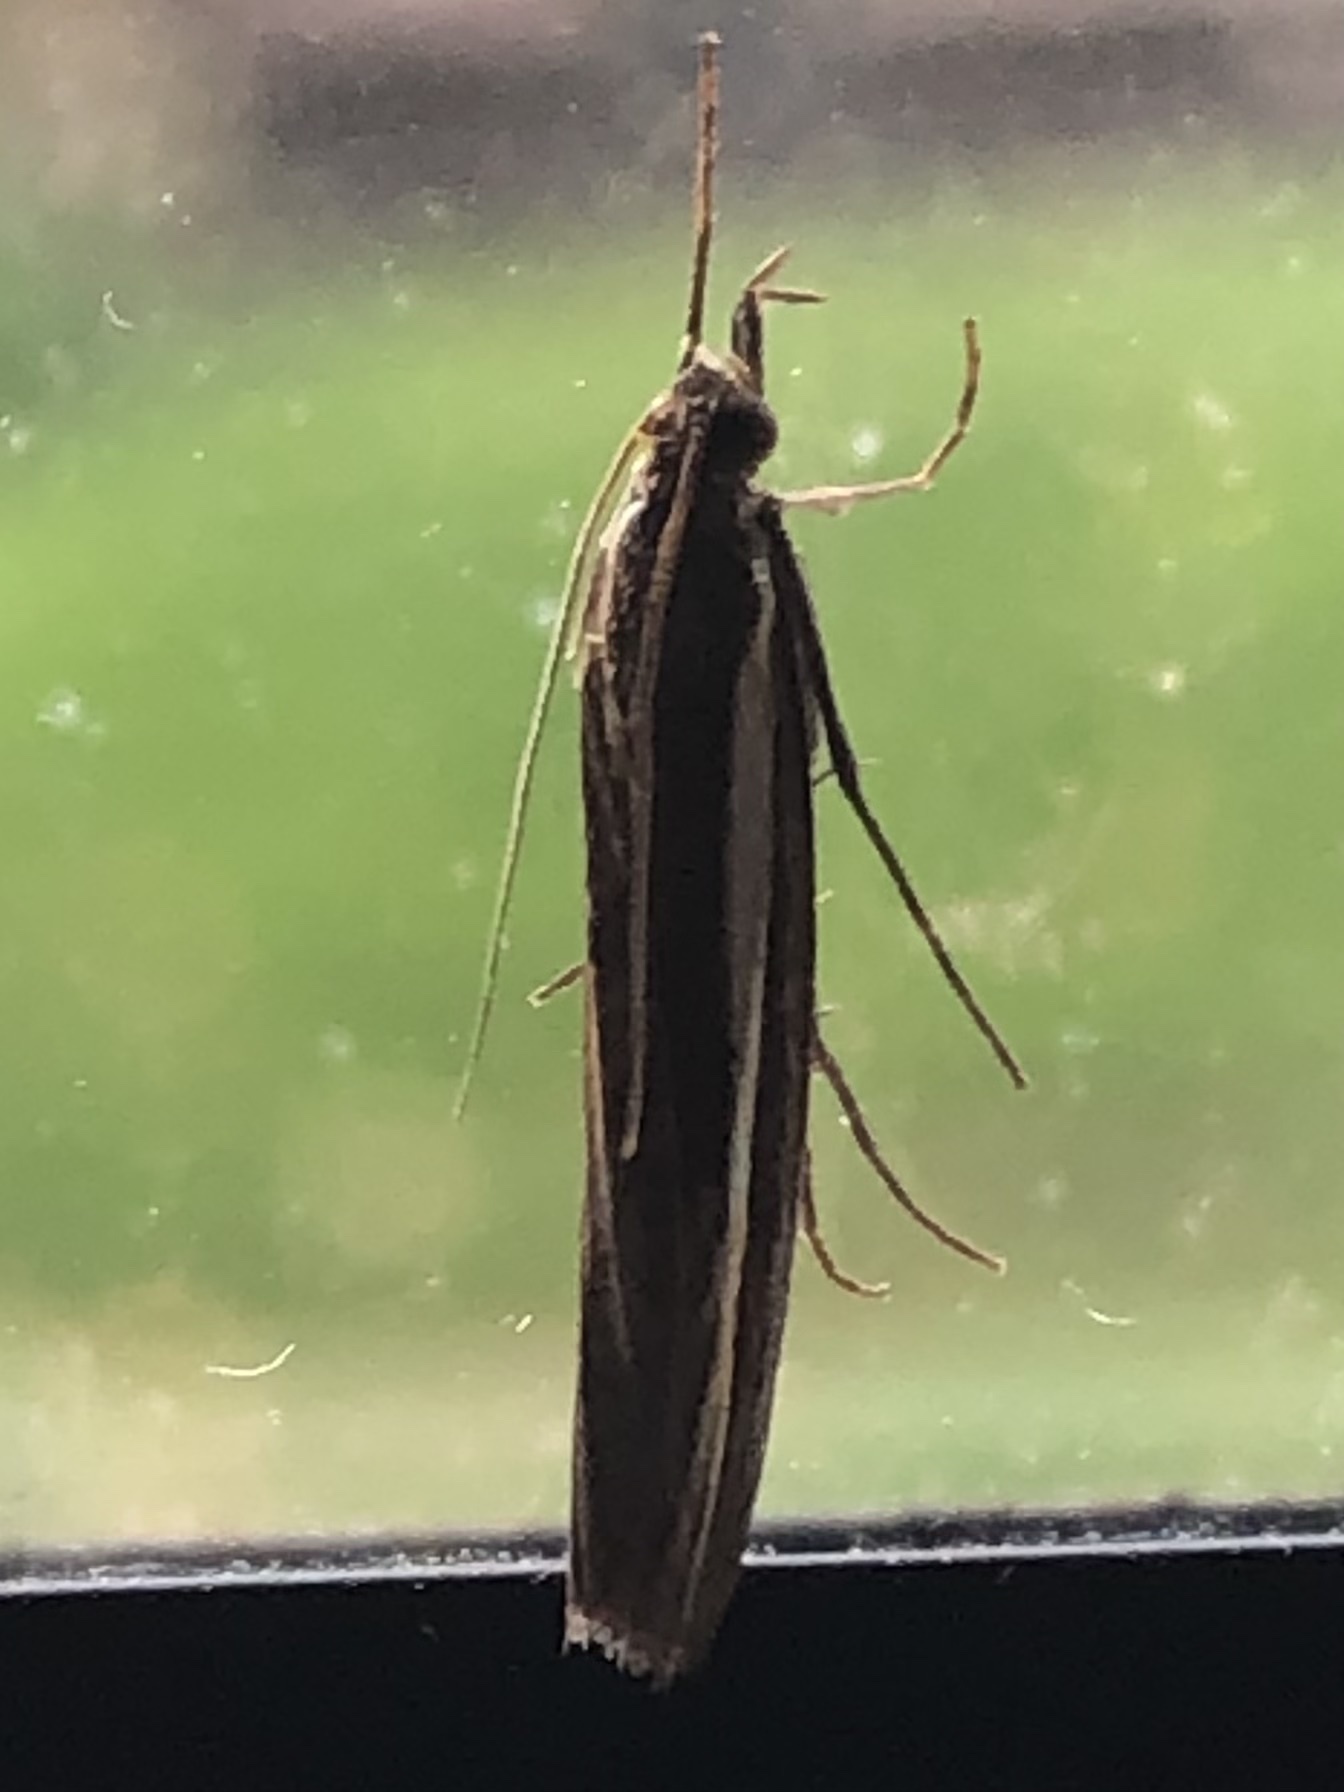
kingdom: Animalia
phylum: Arthropoda
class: Insecta
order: Lepidoptera
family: Crambidae
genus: Agriphila
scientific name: Agriphila tristellus
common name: Common grass-veneer
